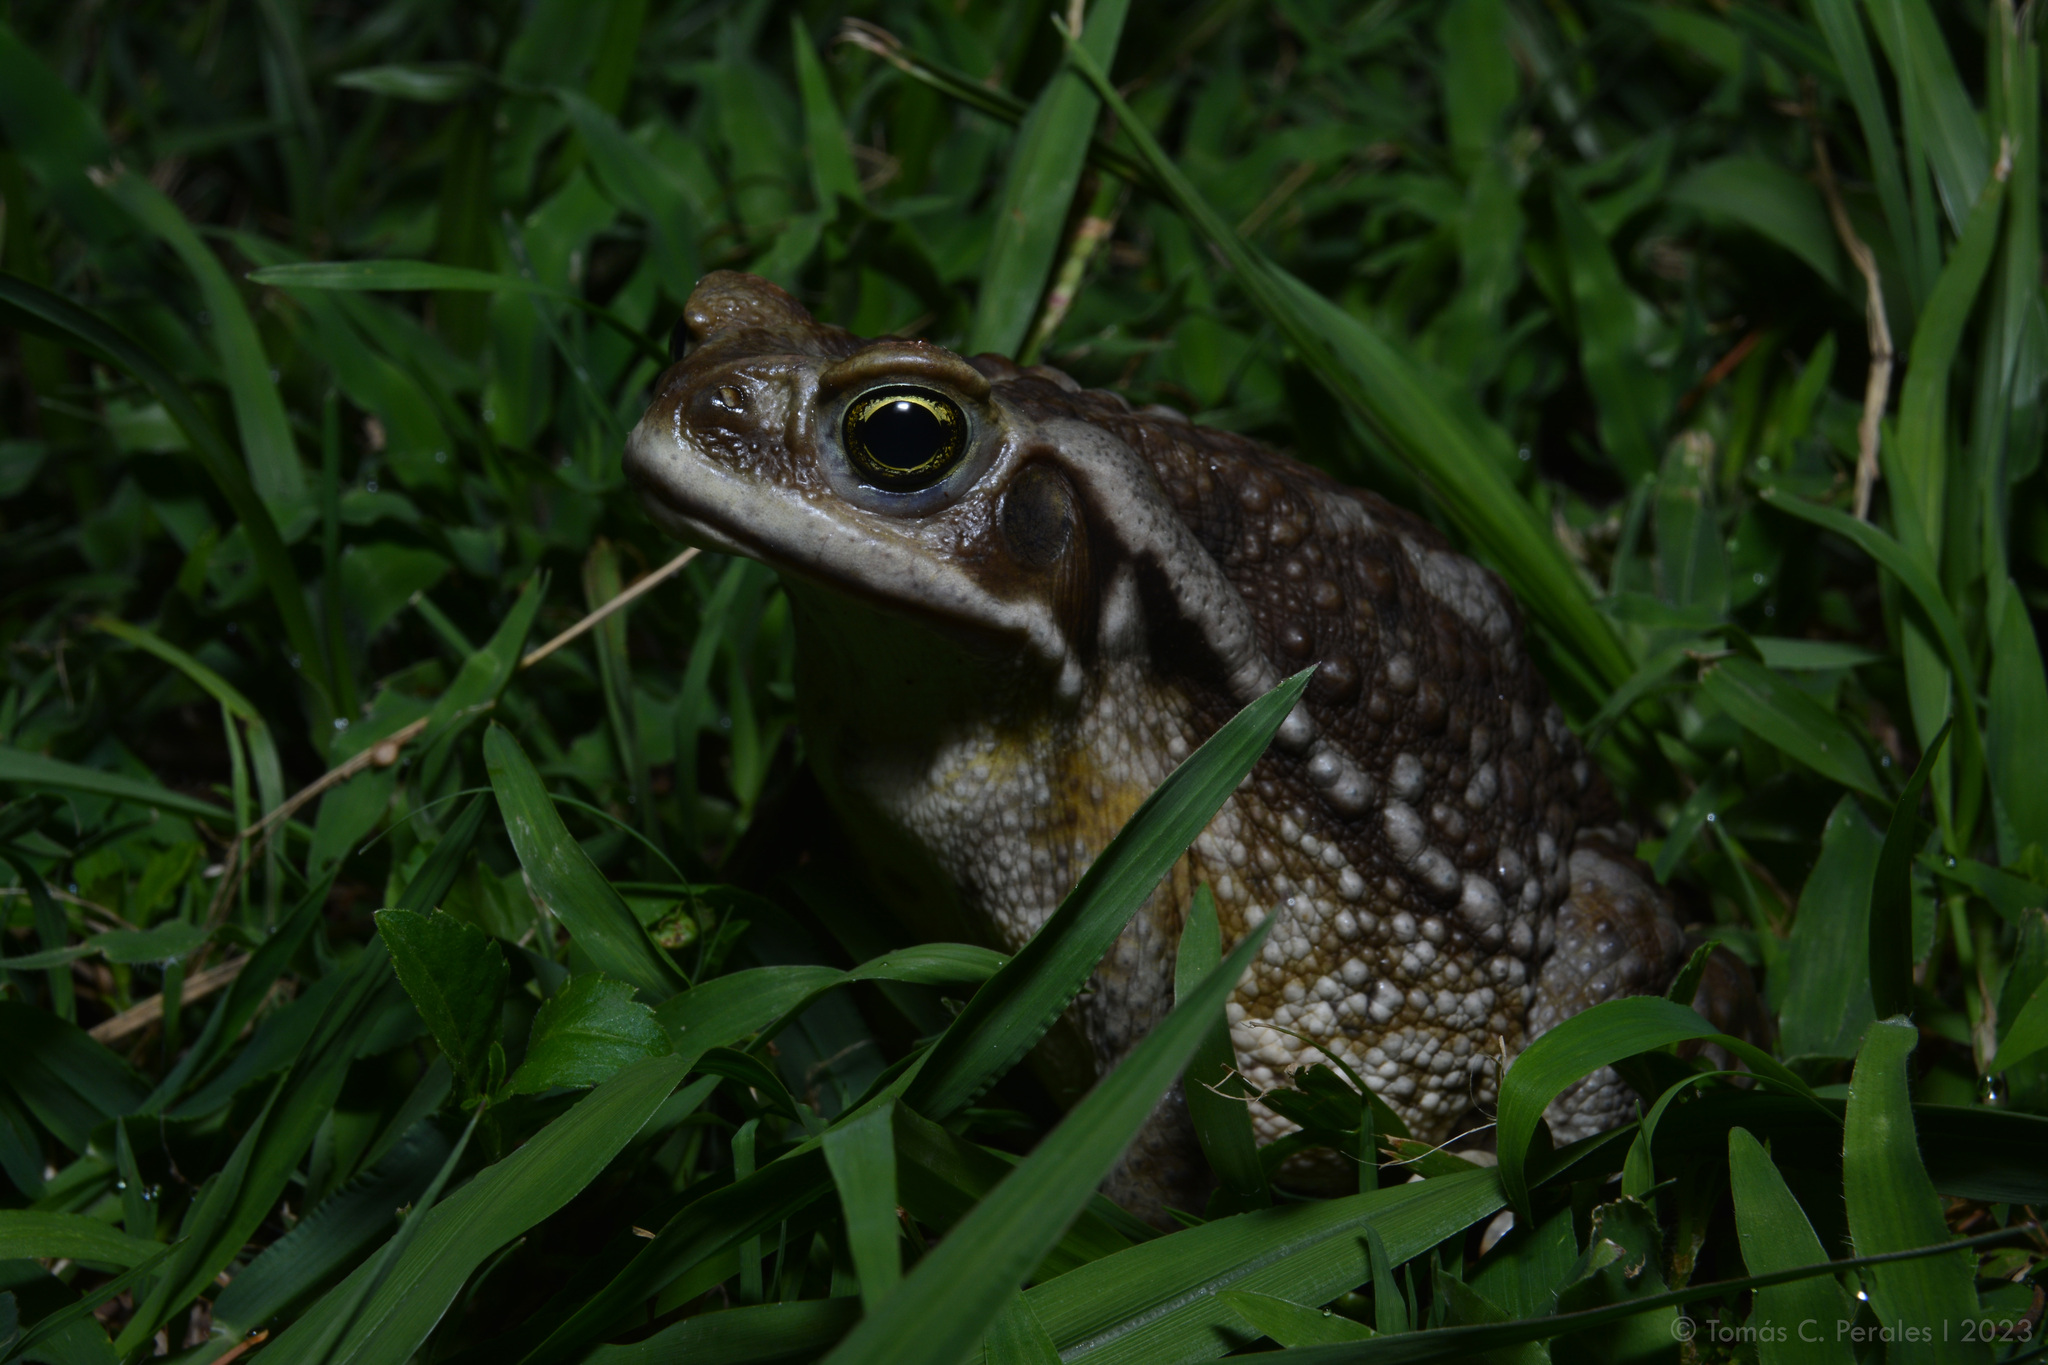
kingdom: Animalia
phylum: Chordata
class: Amphibia
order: Anura
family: Bufonidae
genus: Rhinella
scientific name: Rhinella arenarum
